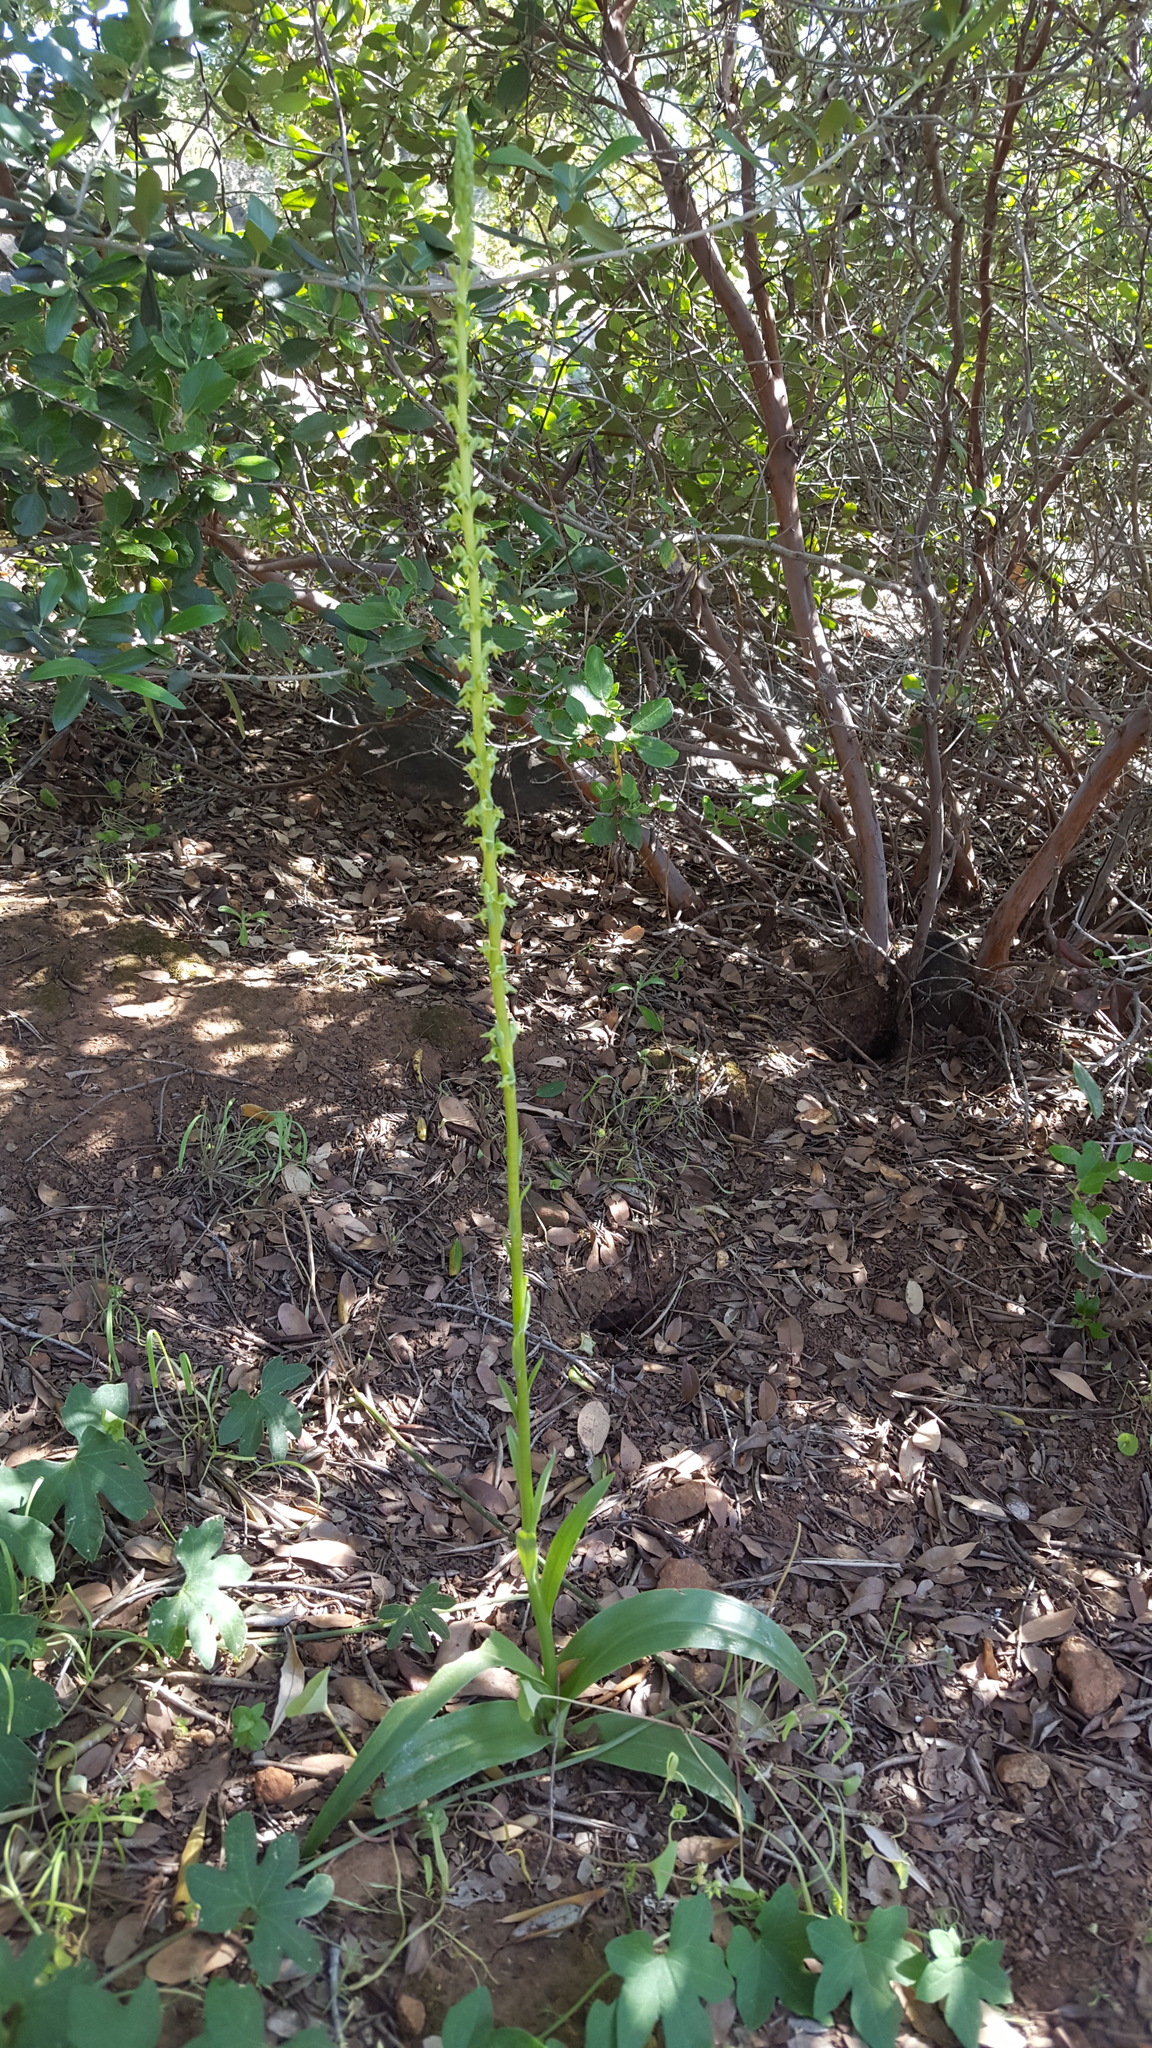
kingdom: Plantae
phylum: Tracheophyta
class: Liliopsida
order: Asparagales
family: Orchidaceae
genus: Platanthera
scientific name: Platanthera cooperi
